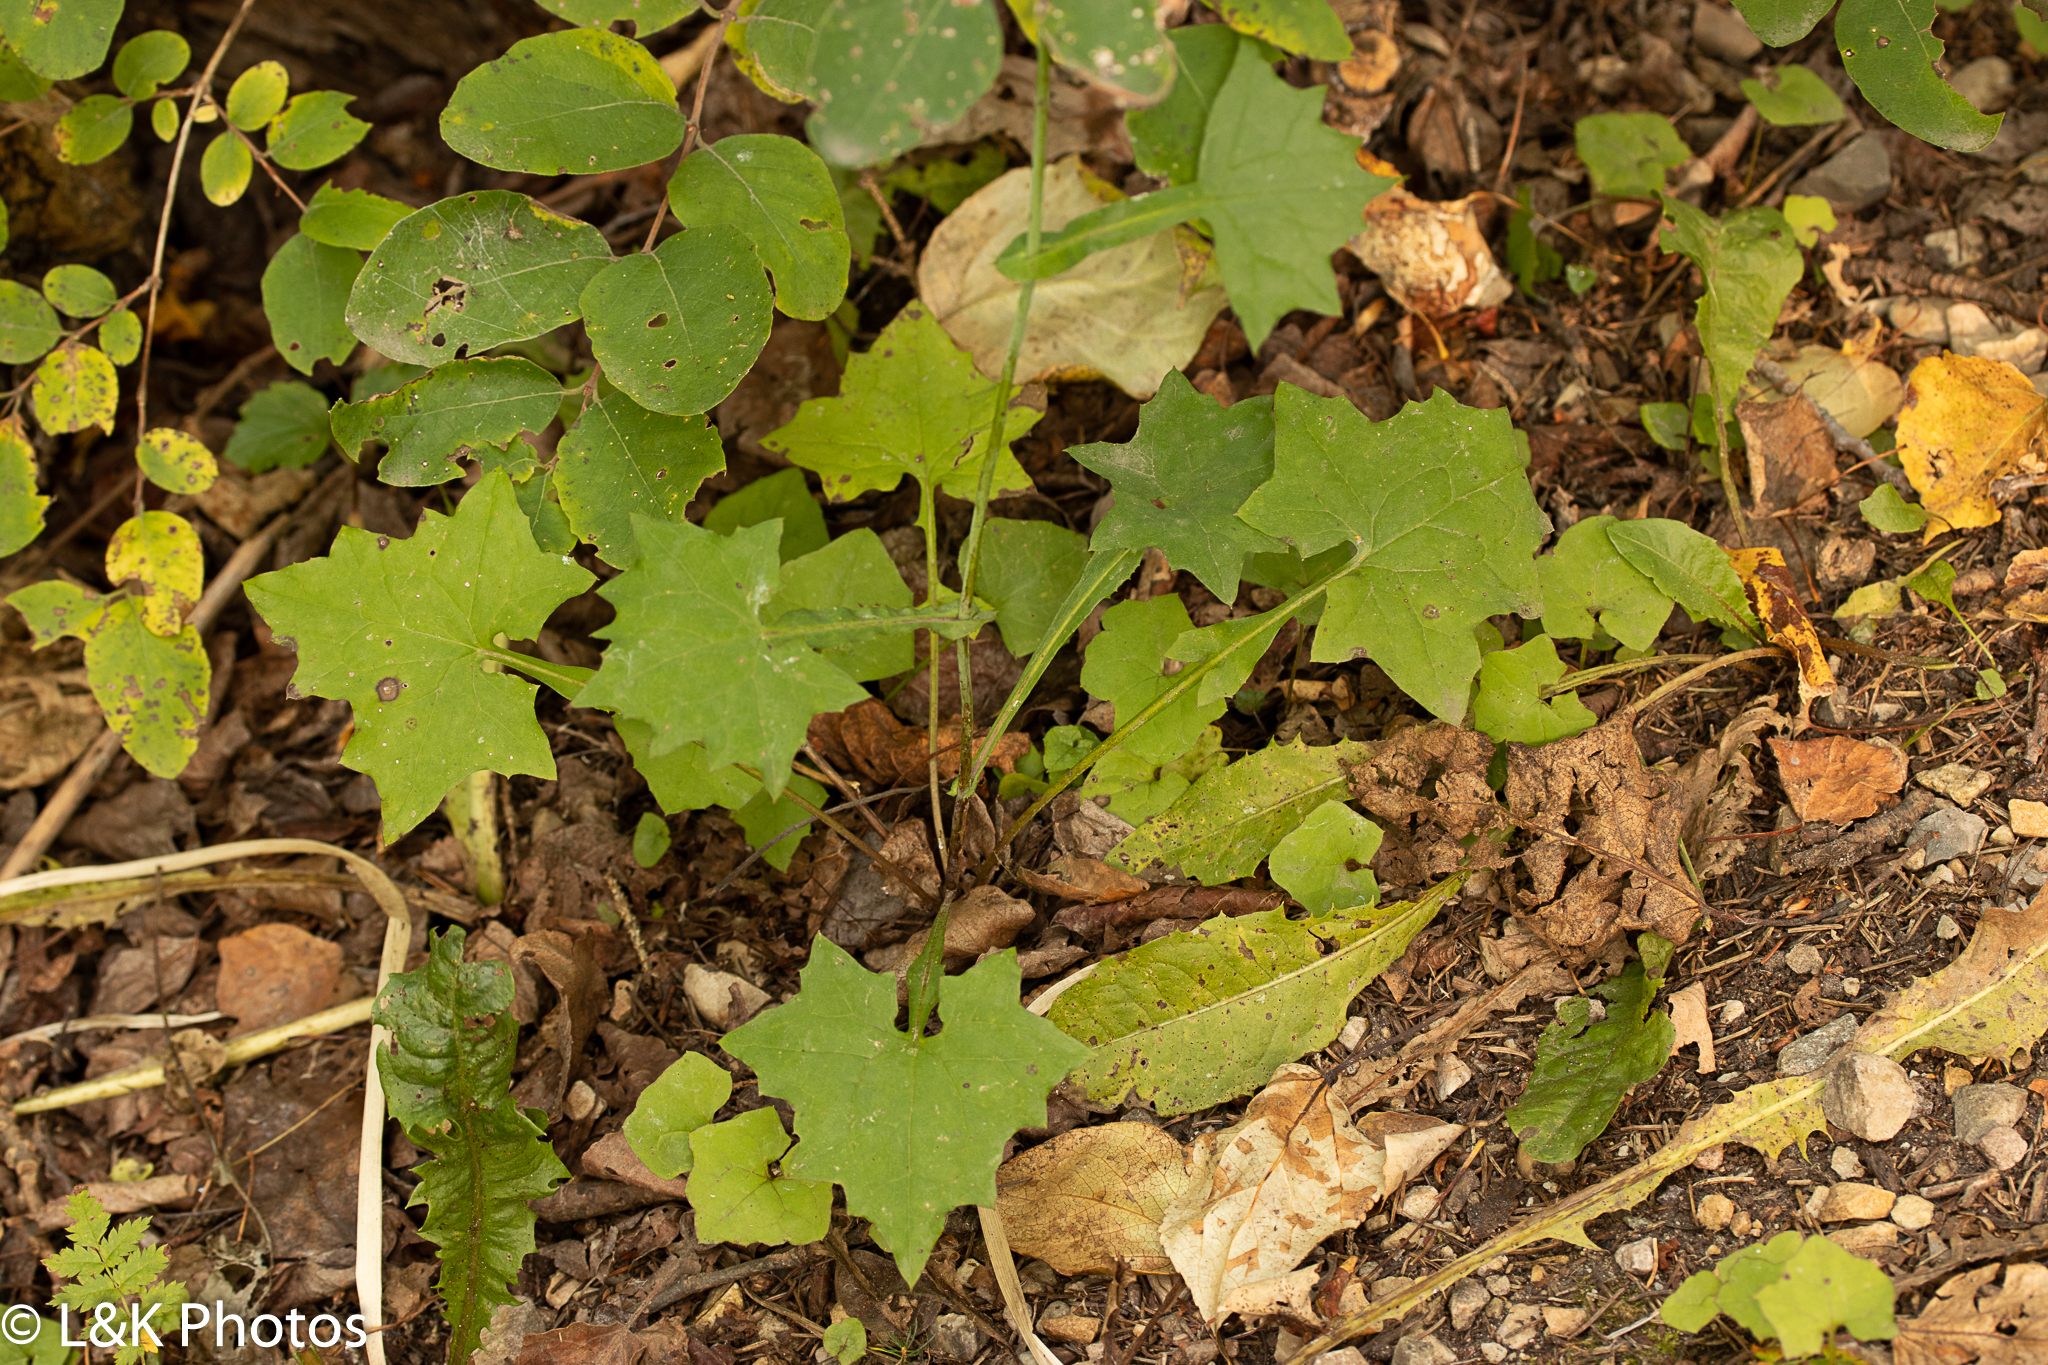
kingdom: Plantae
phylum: Tracheophyta
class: Magnoliopsida
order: Asterales
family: Asteraceae
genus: Mycelis
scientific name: Mycelis muralis
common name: Wall lettuce
